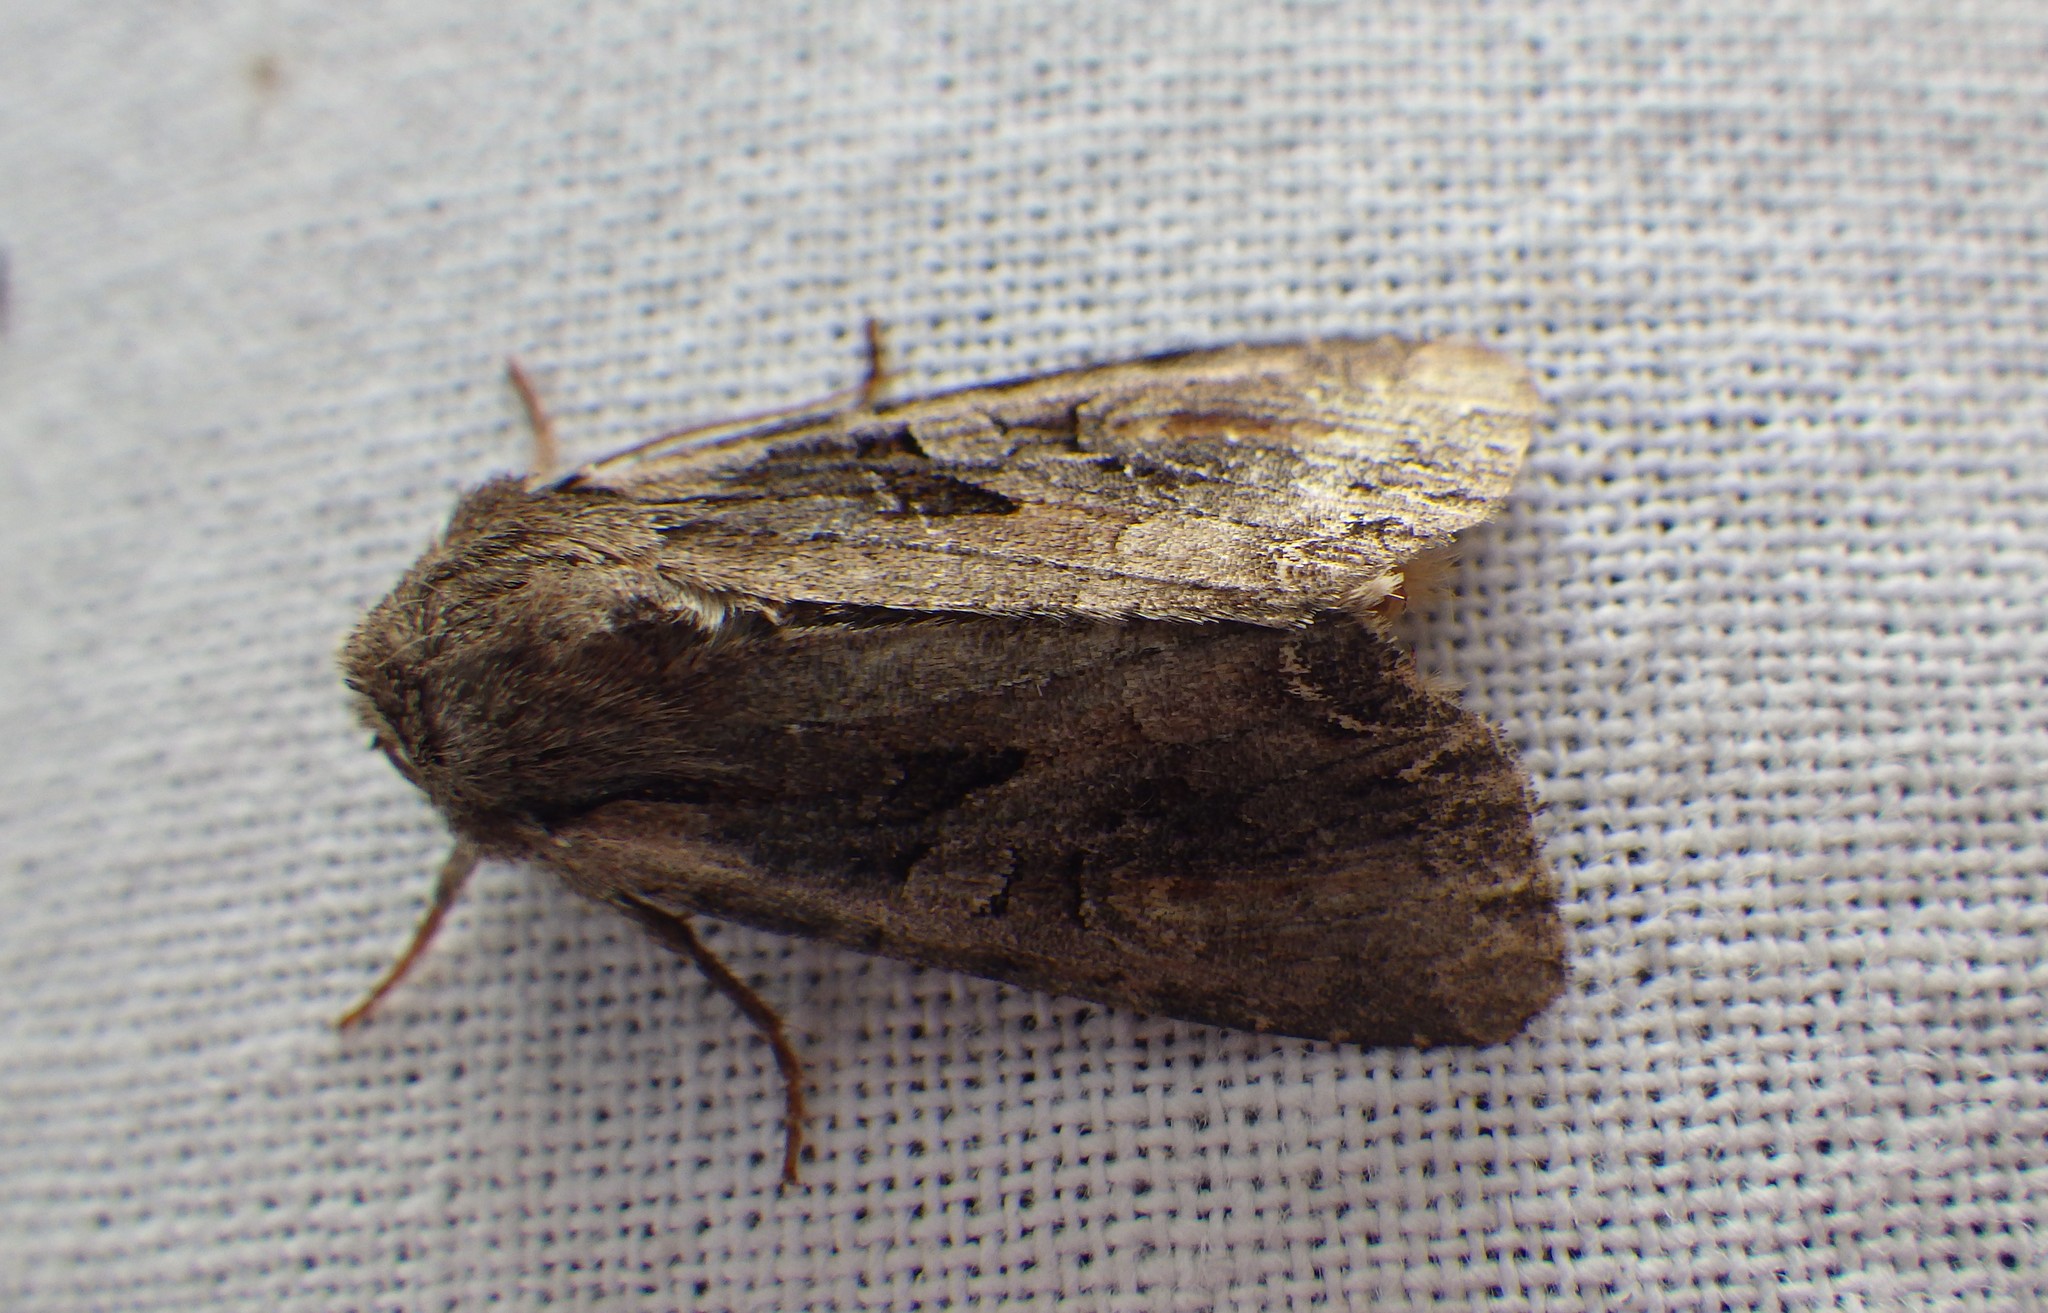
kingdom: Animalia
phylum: Arthropoda
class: Insecta
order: Lepidoptera
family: Noctuidae
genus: Lacanobia
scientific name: Lacanobia suasa
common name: Dog's tooth
